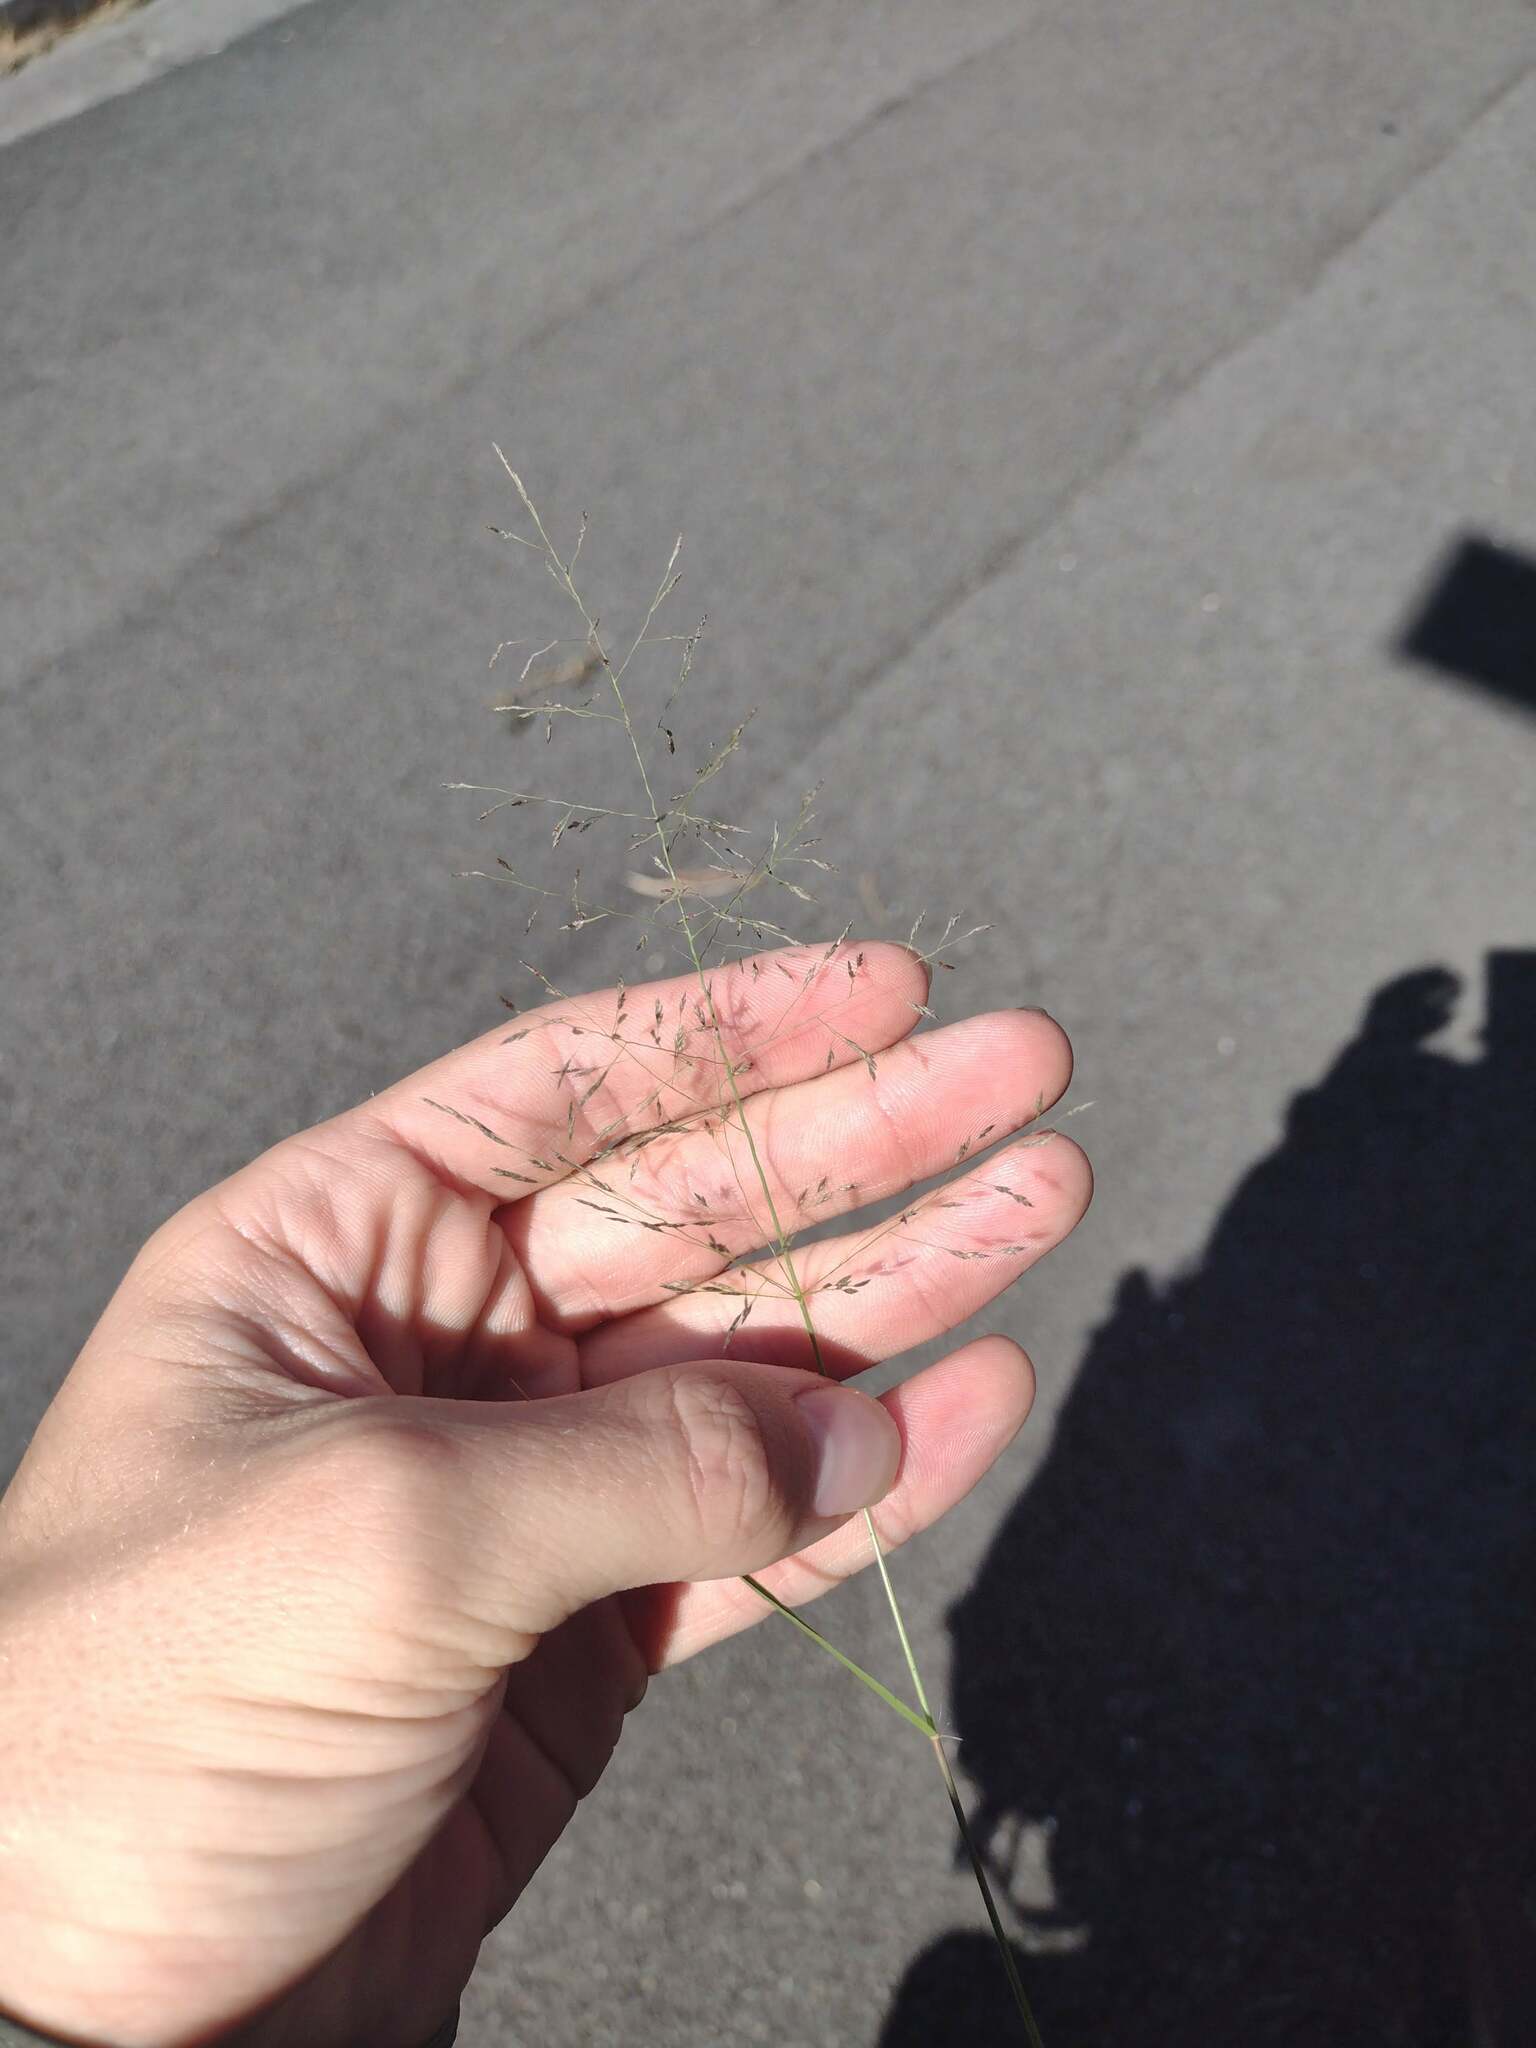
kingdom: Plantae
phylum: Tracheophyta
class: Liliopsida
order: Poales
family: Poaceae
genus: Eragrostis
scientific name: Eragrostis pilosa
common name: Indian lovegrass
